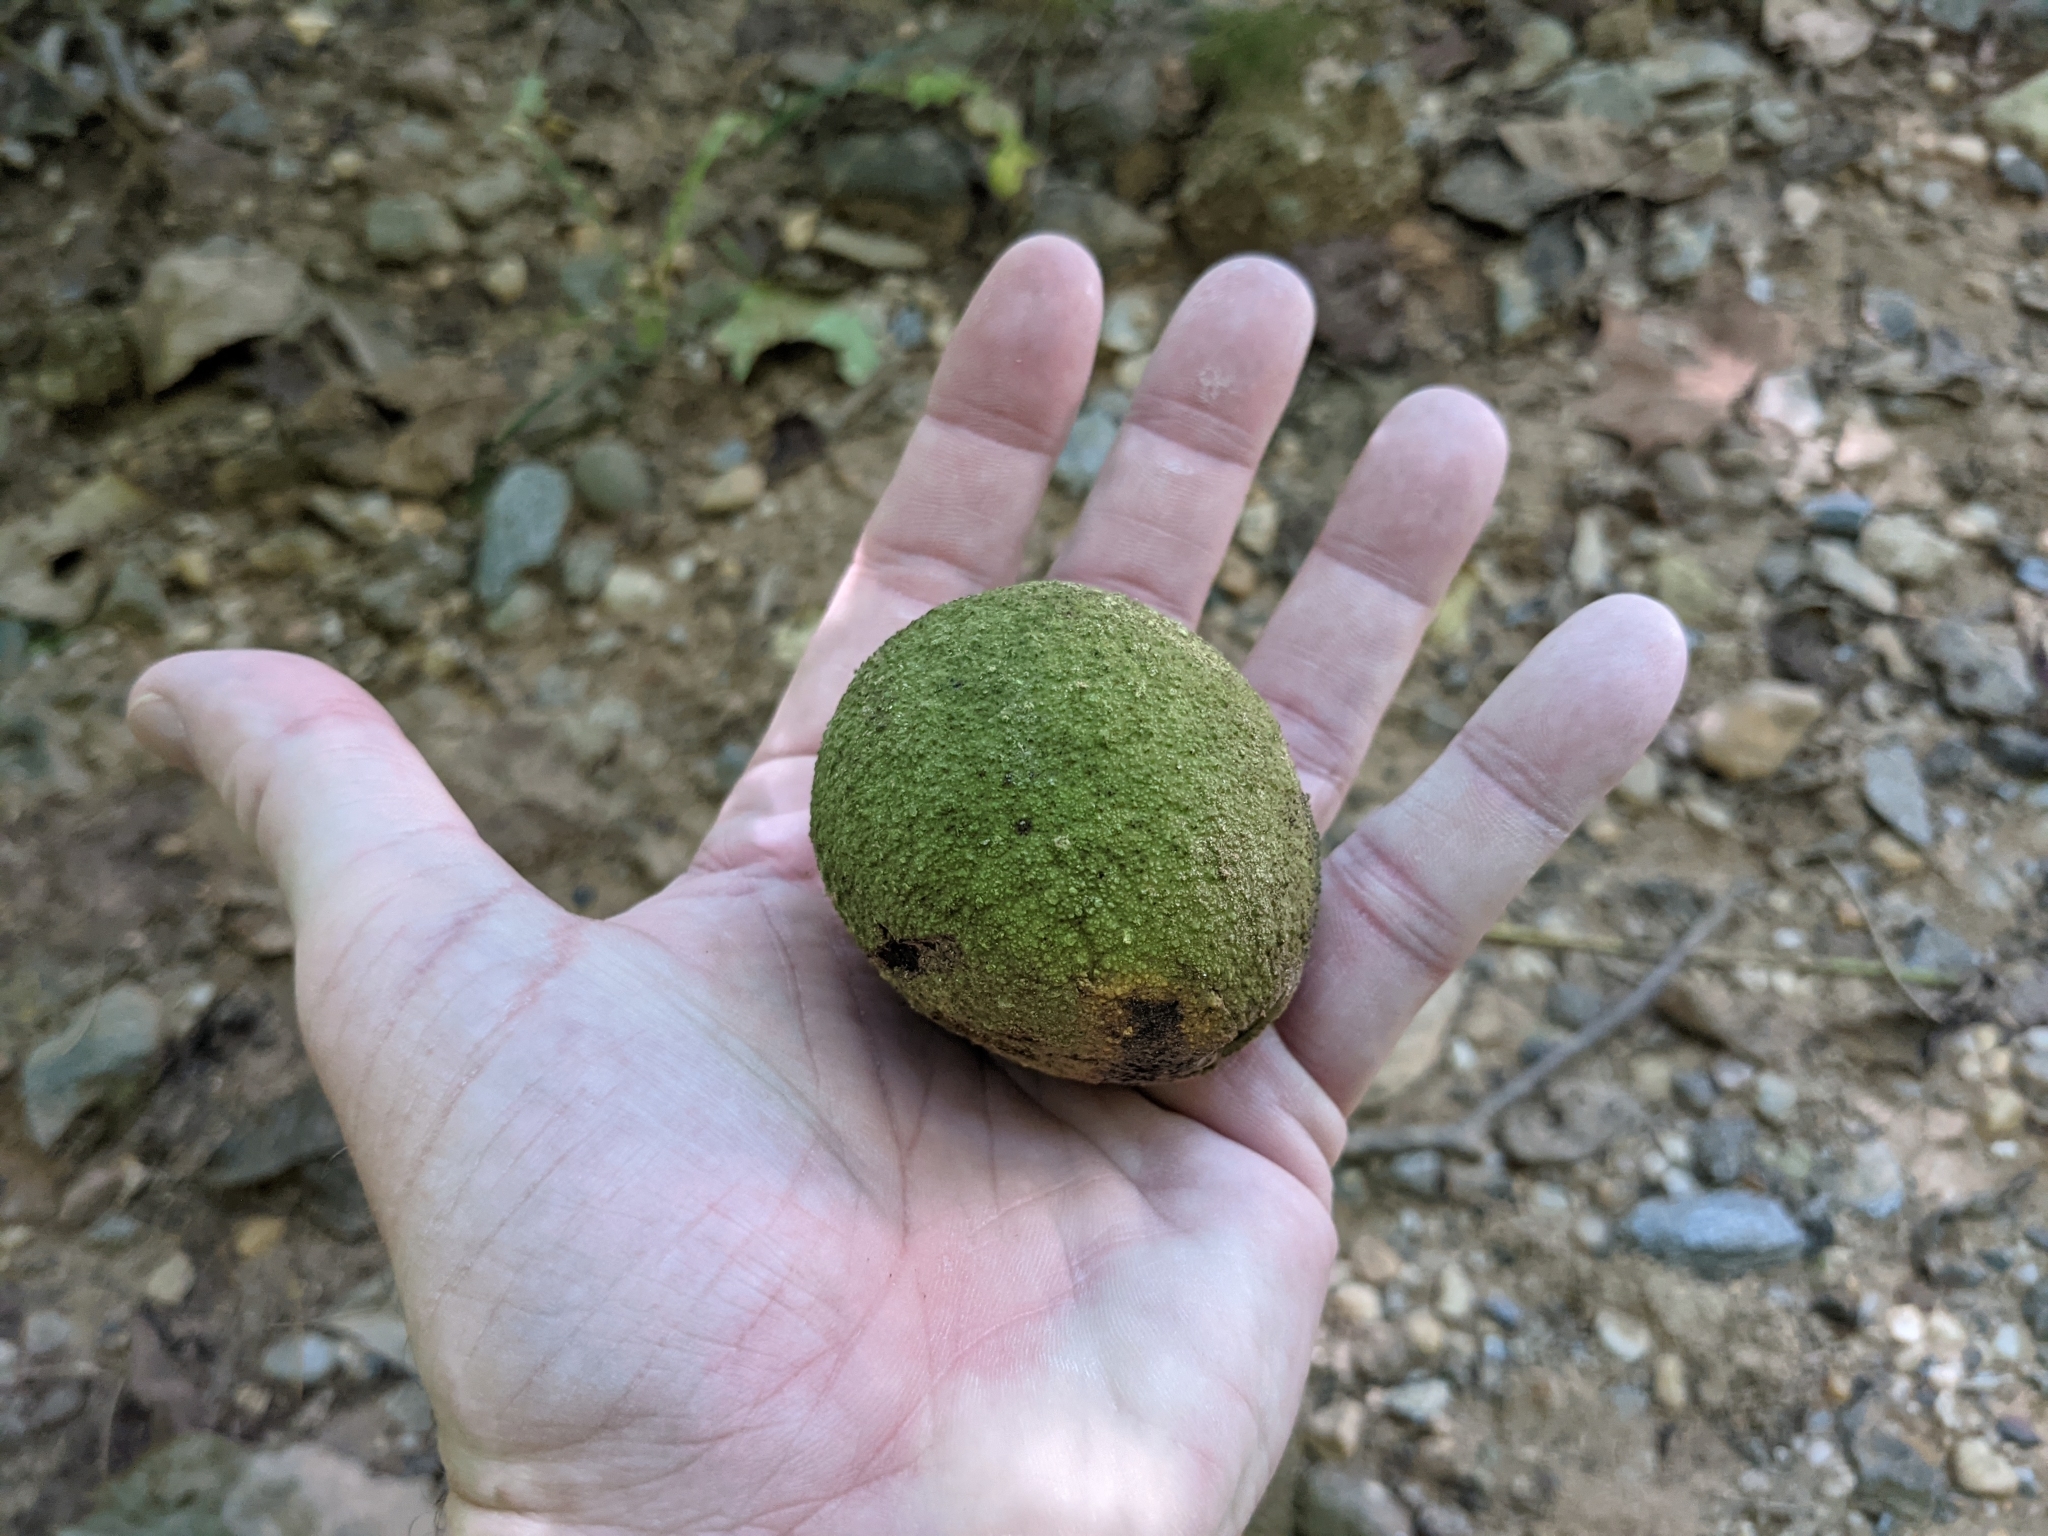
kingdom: Plantae
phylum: Tracheophyta
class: Magnoliopsida
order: Fagales
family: Juglandaceae
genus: Juglans
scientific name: Juglans nigra
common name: Black walnut
